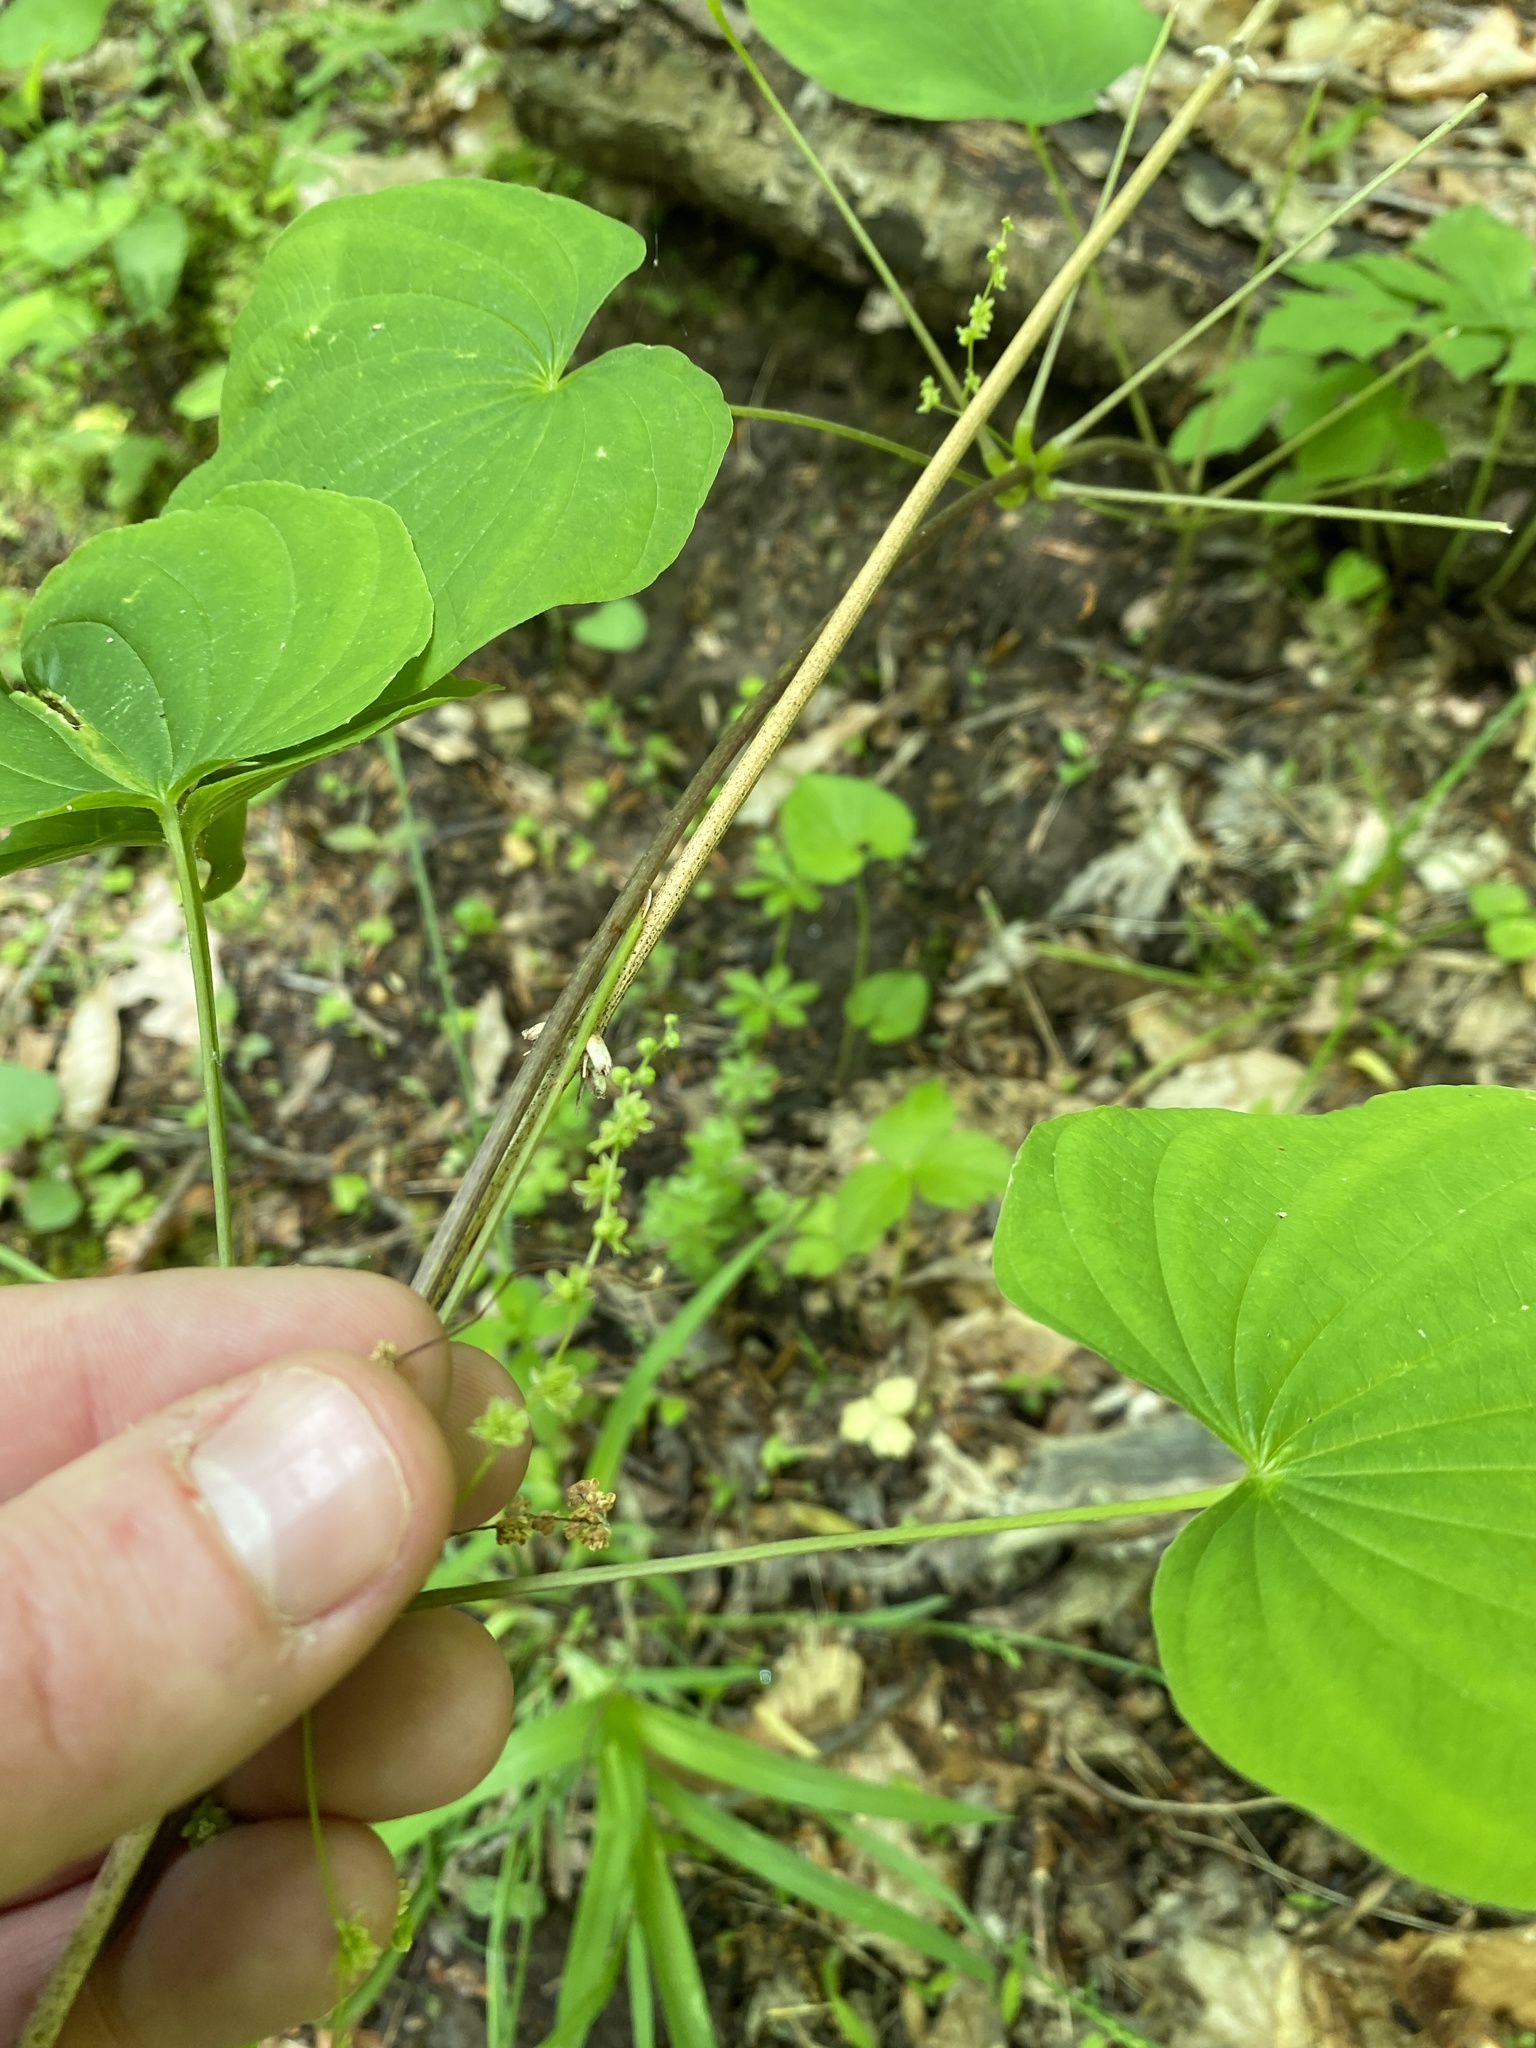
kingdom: Plantae
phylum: Tracheophyta
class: Liliopsida
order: Dioscoreales
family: Dioscoreaceae
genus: Dioscorea
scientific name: Dioscorea villosa
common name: Wild yam
